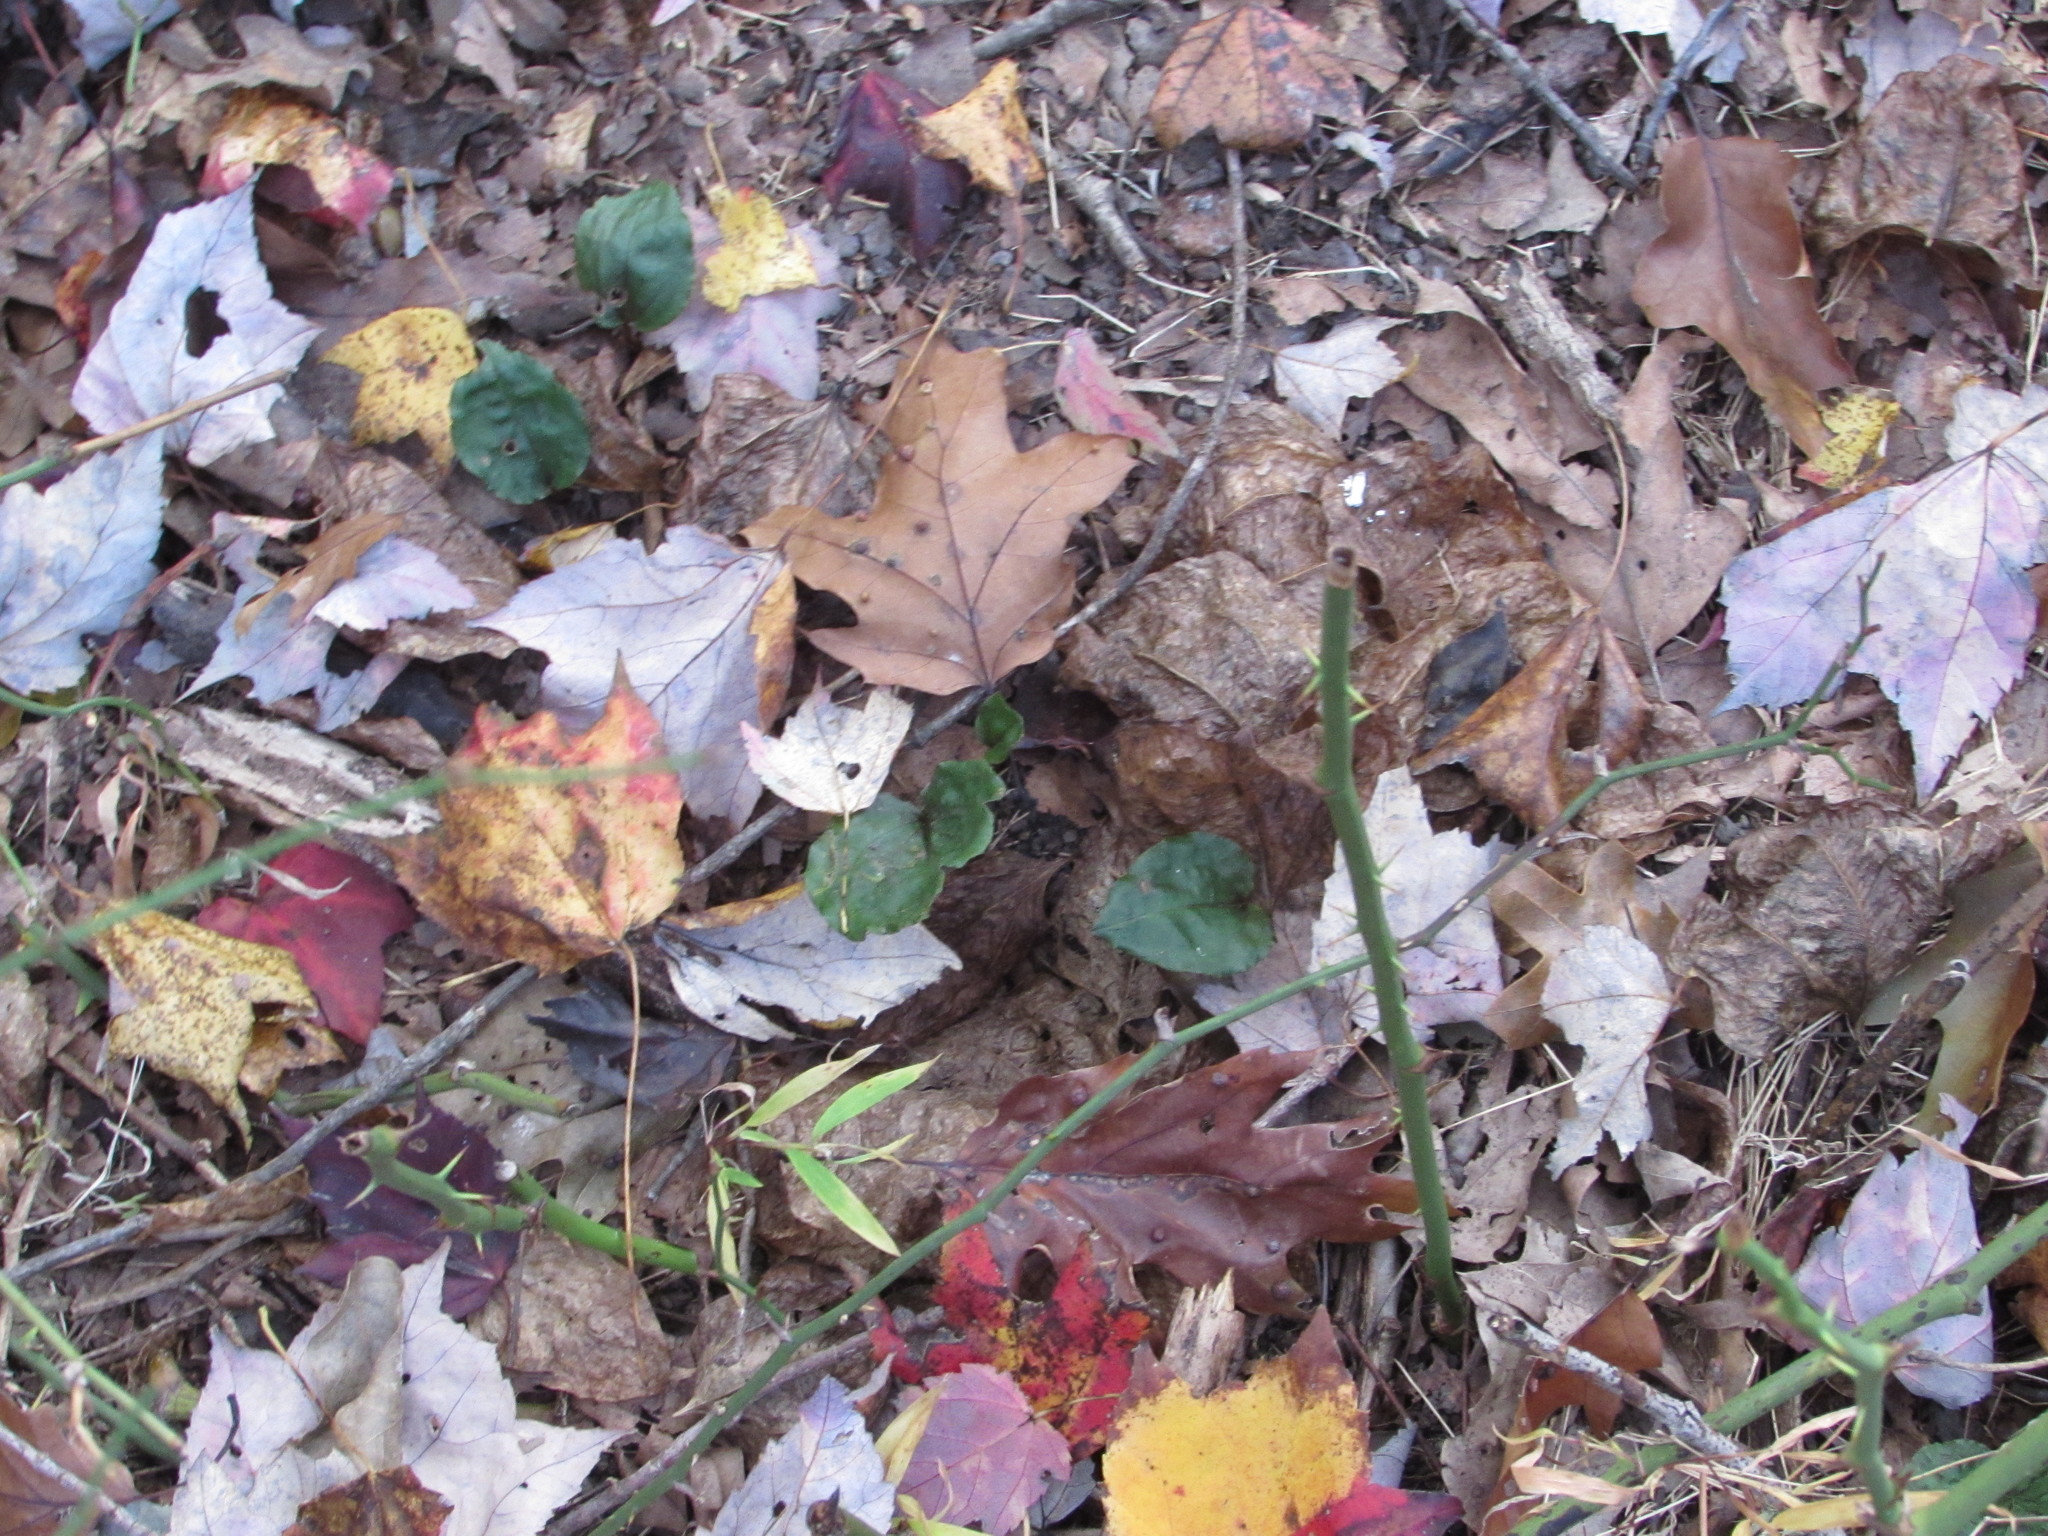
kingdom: Plantae
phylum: Tracheophyta
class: Liliopsida
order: Asparagales
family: Orchidaceae
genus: Tipularia
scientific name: Tipularia discolor
